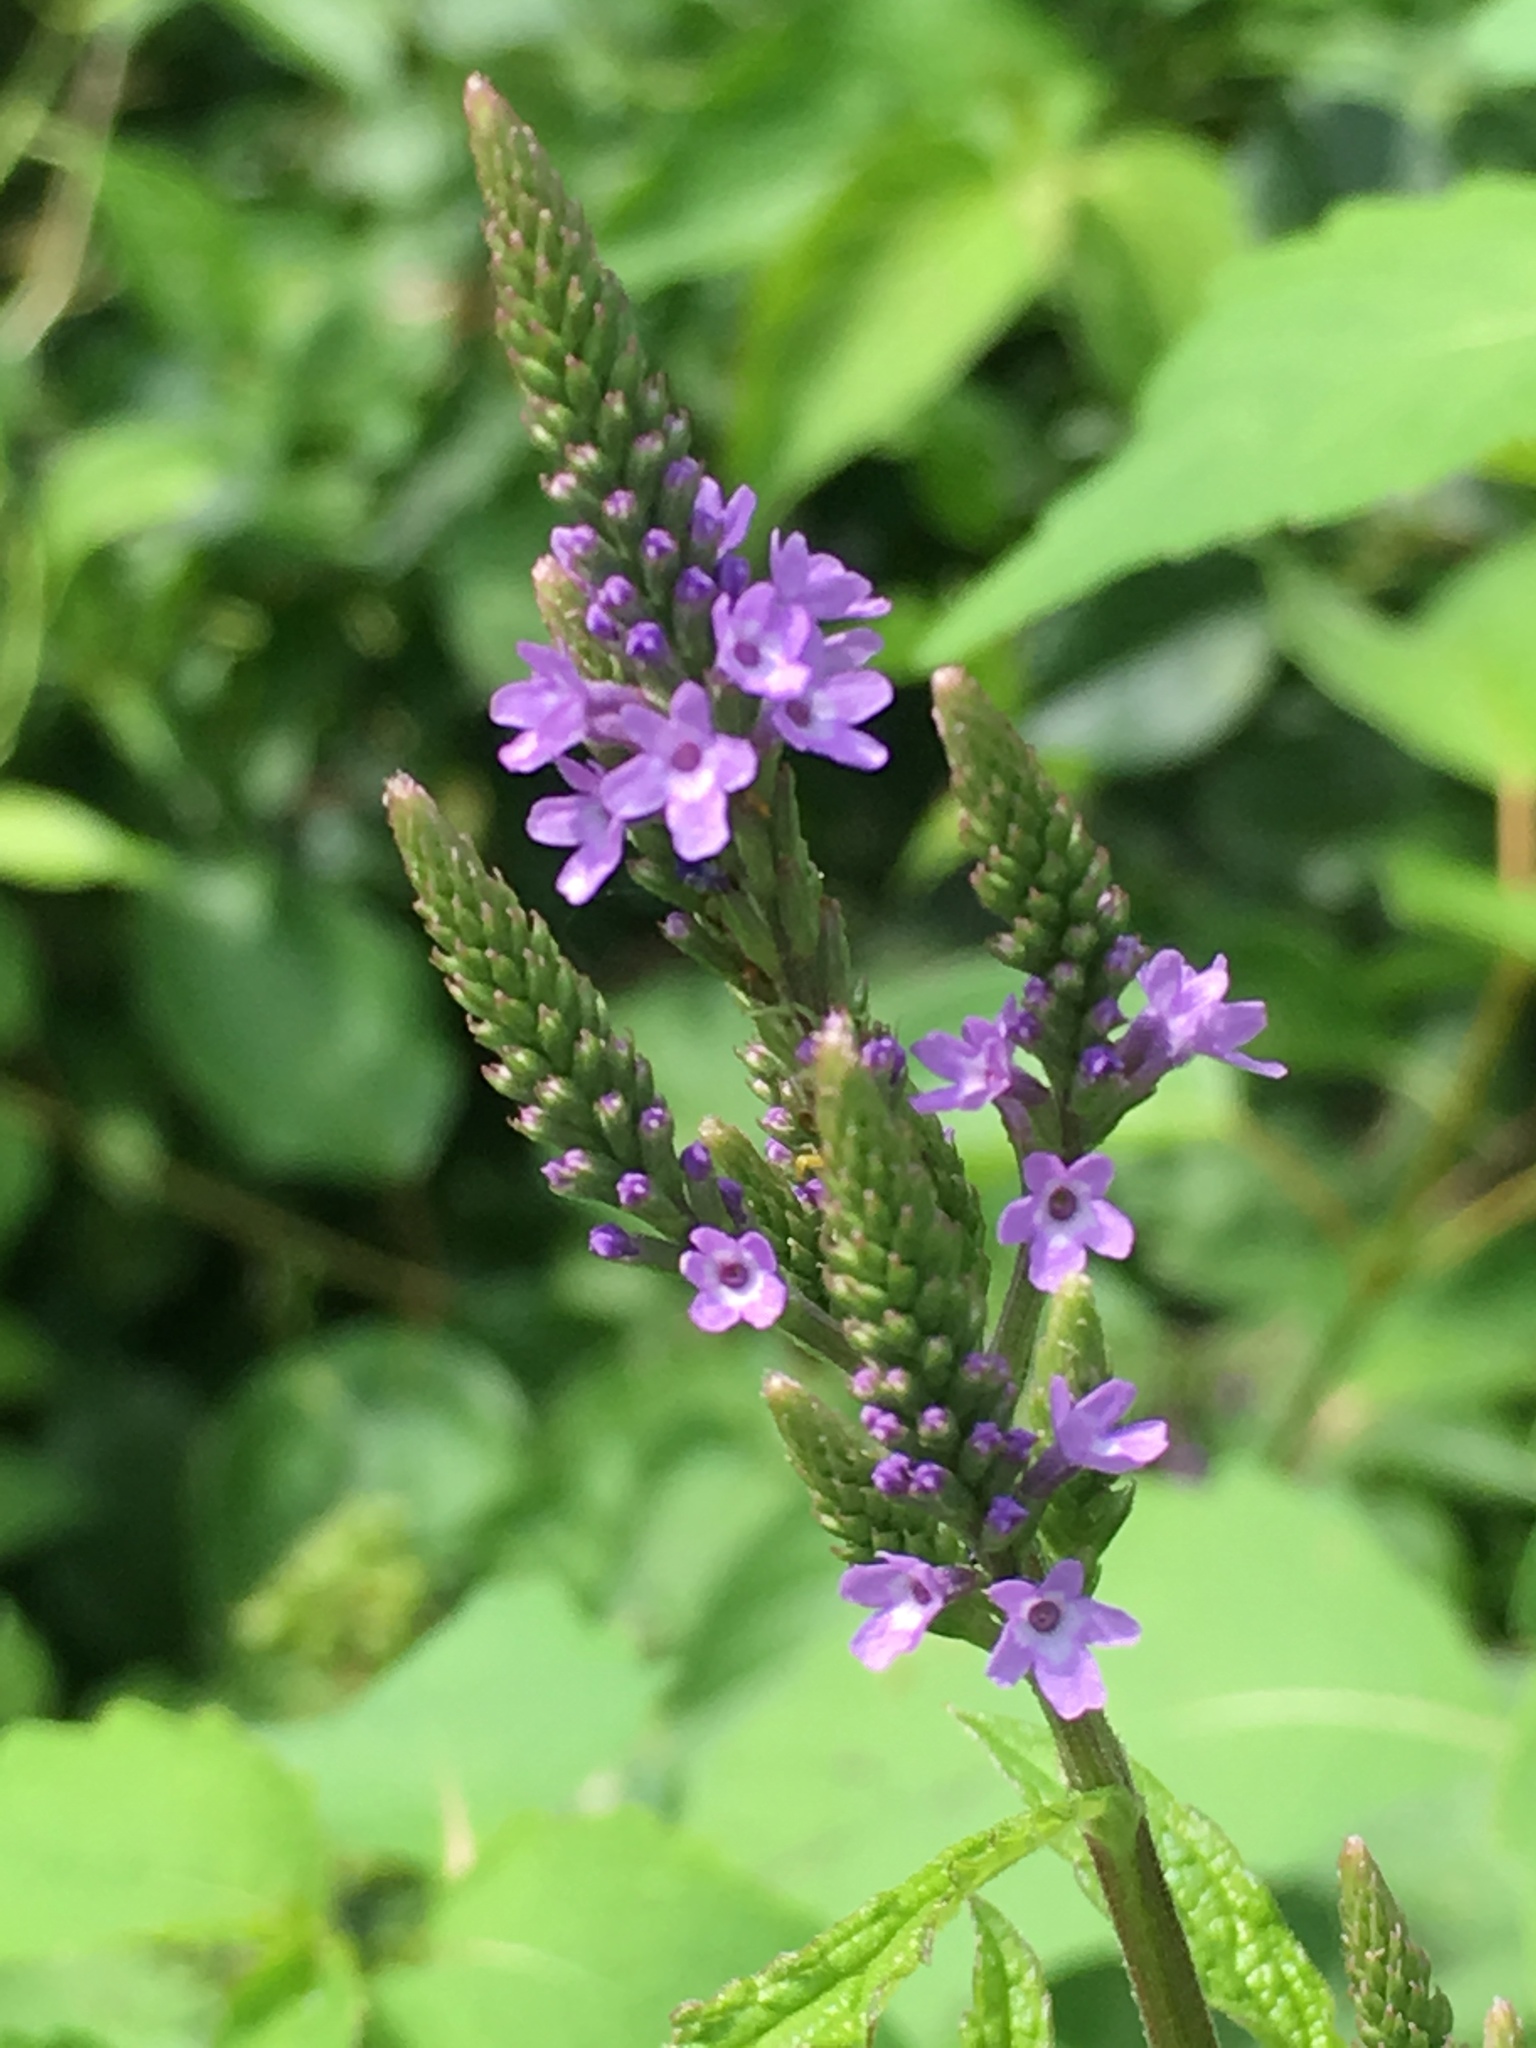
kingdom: Plantae
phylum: Tracheophyta
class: Magnoliopsida
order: Lamiales
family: Verbenaceae
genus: Verbena
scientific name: Verbena hastata
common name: American blue vervain
